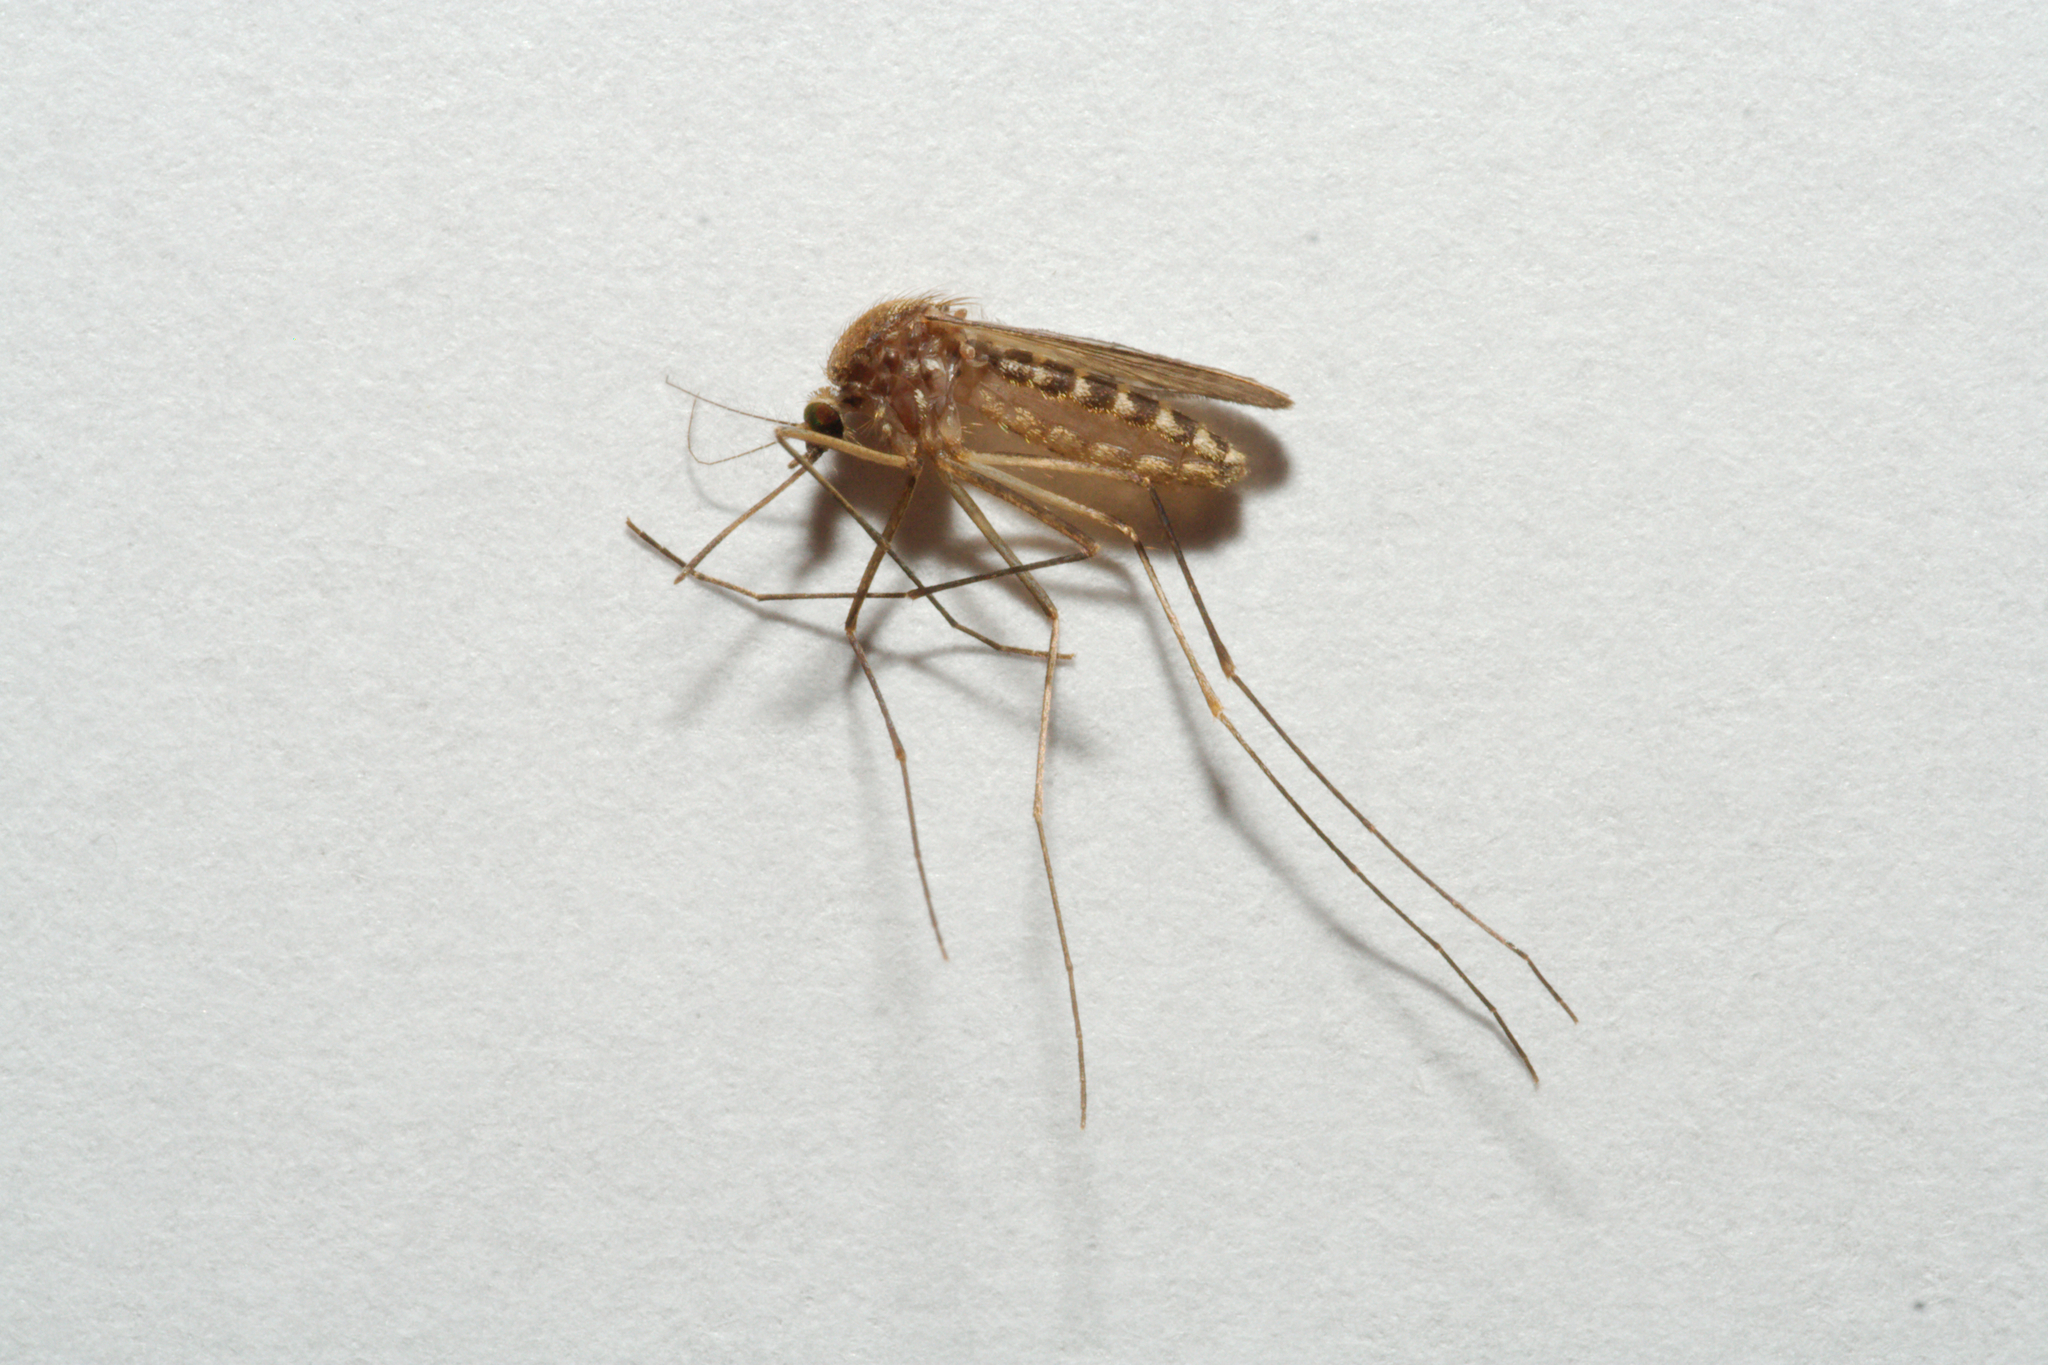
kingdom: Animalia
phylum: Arthropoda
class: Insecta
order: Diptera
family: Culicidae
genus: Culex
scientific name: Culex
